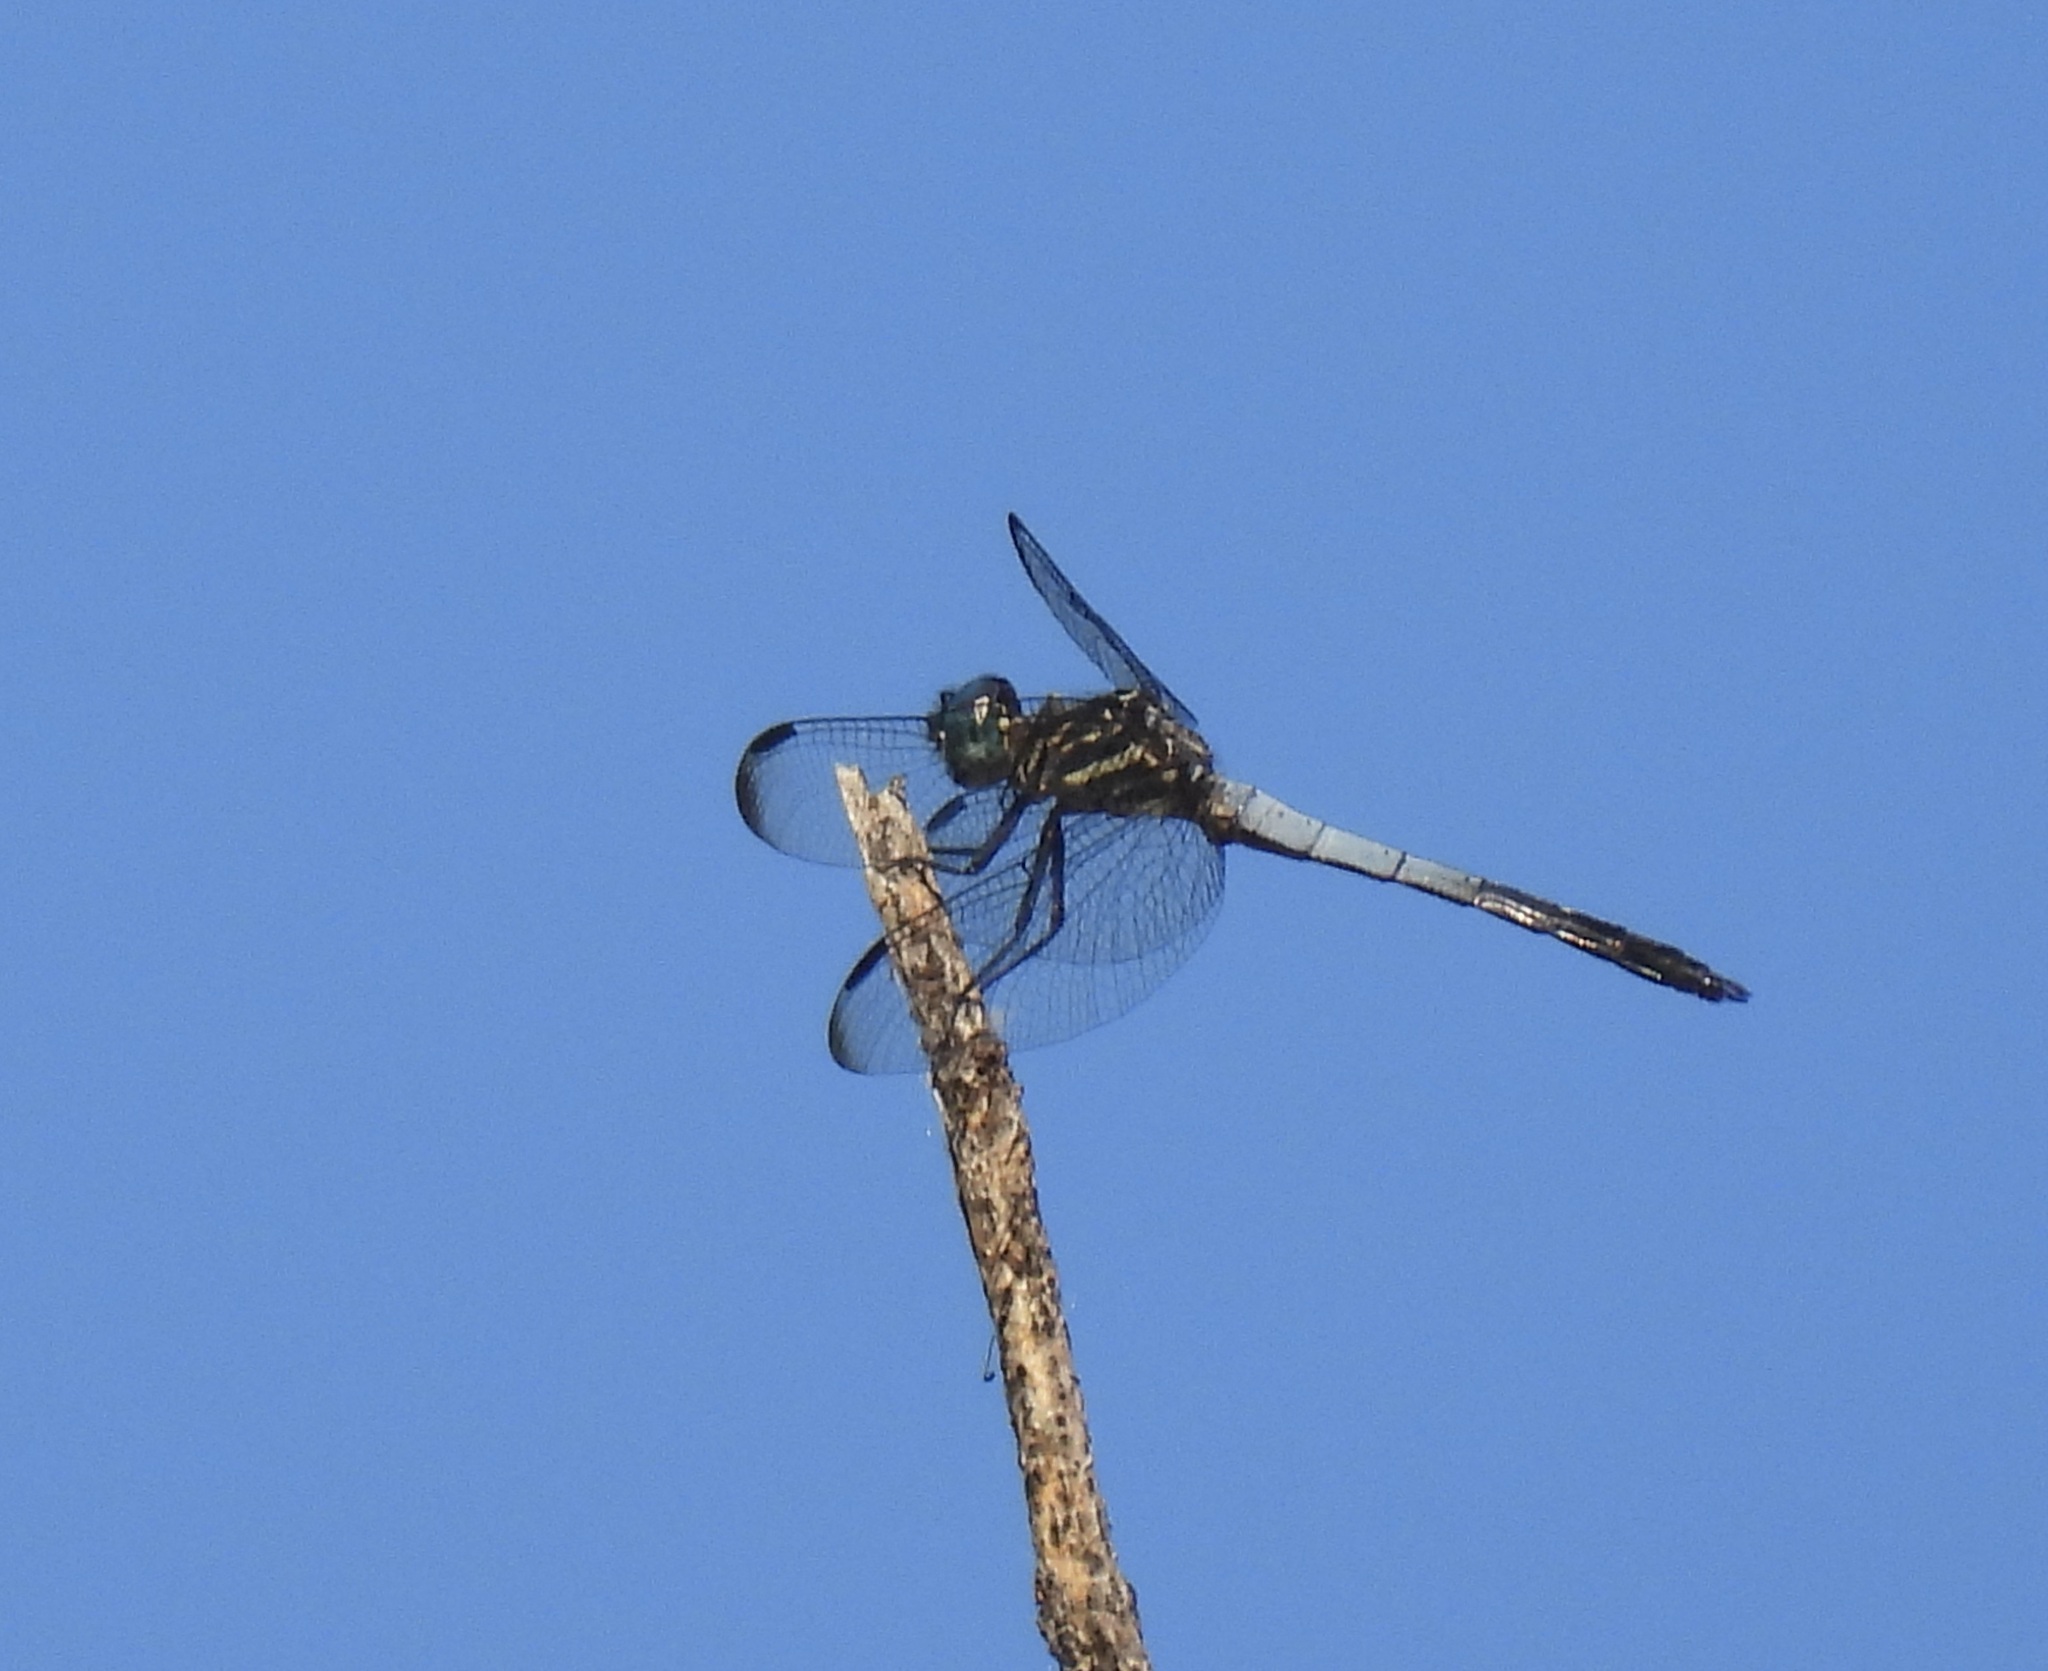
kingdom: Animalia
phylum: Arthropoda
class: Insecta
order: Odonata
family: Libellulidae
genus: Cannaphila
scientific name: Cannaphila insularis
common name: Gray-waisted skimmer
